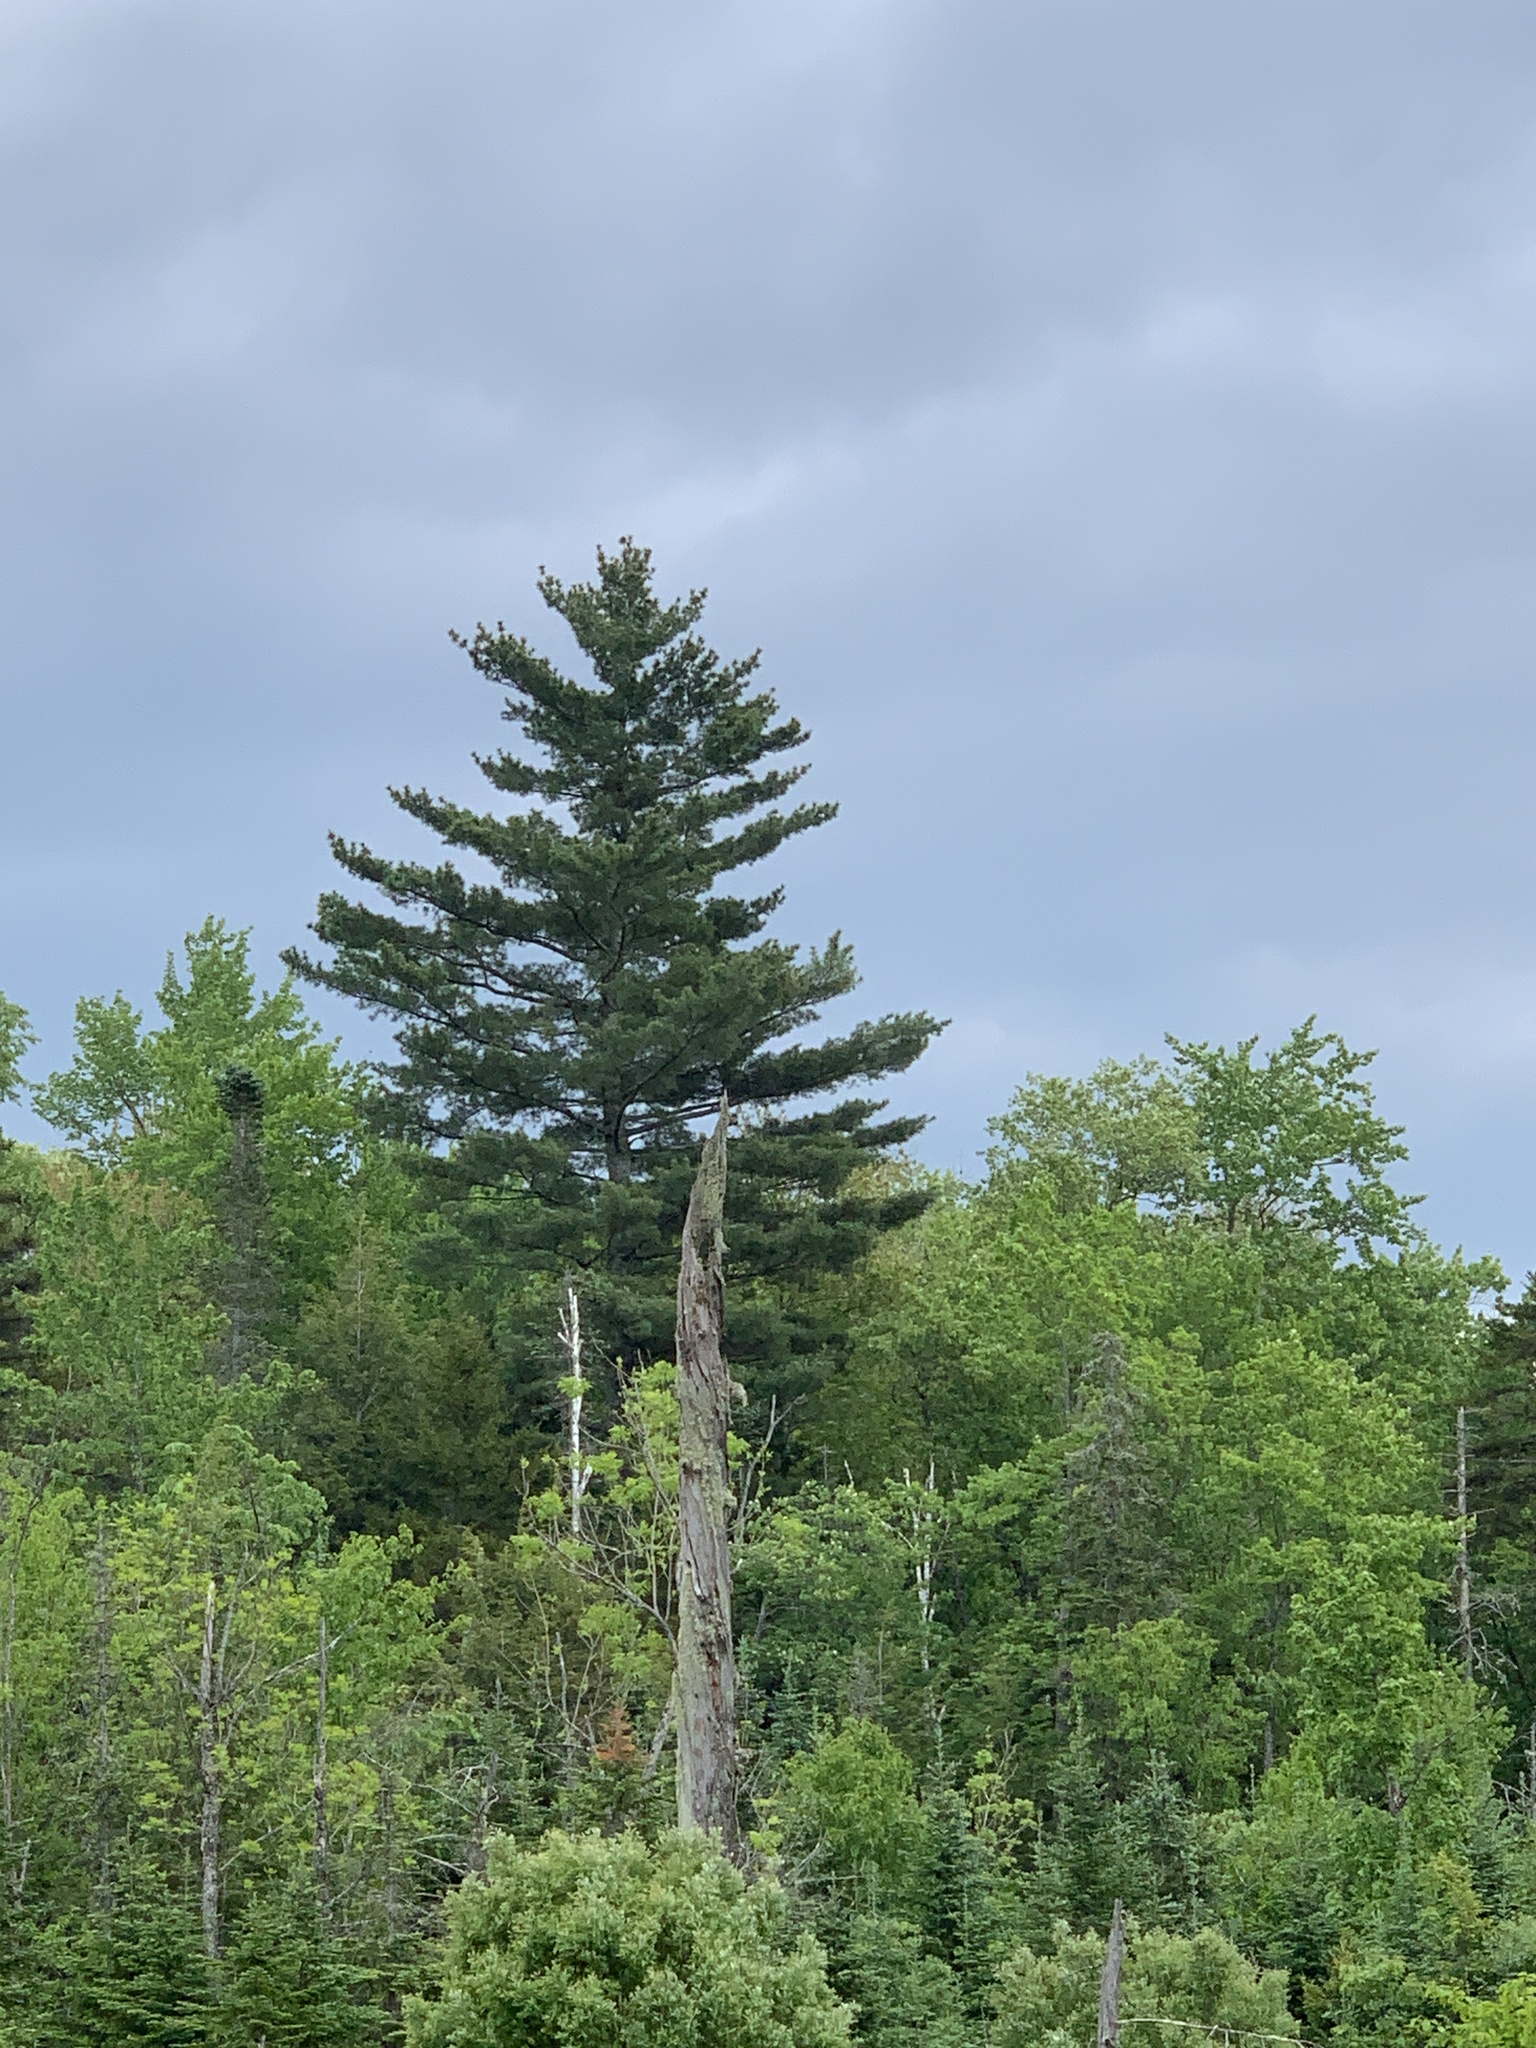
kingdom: Plantae
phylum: Tracheophyta
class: Pinopsida
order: Pinales
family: Pinaceae
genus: Pinus
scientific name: Pinus strobus
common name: Weymouth pine
